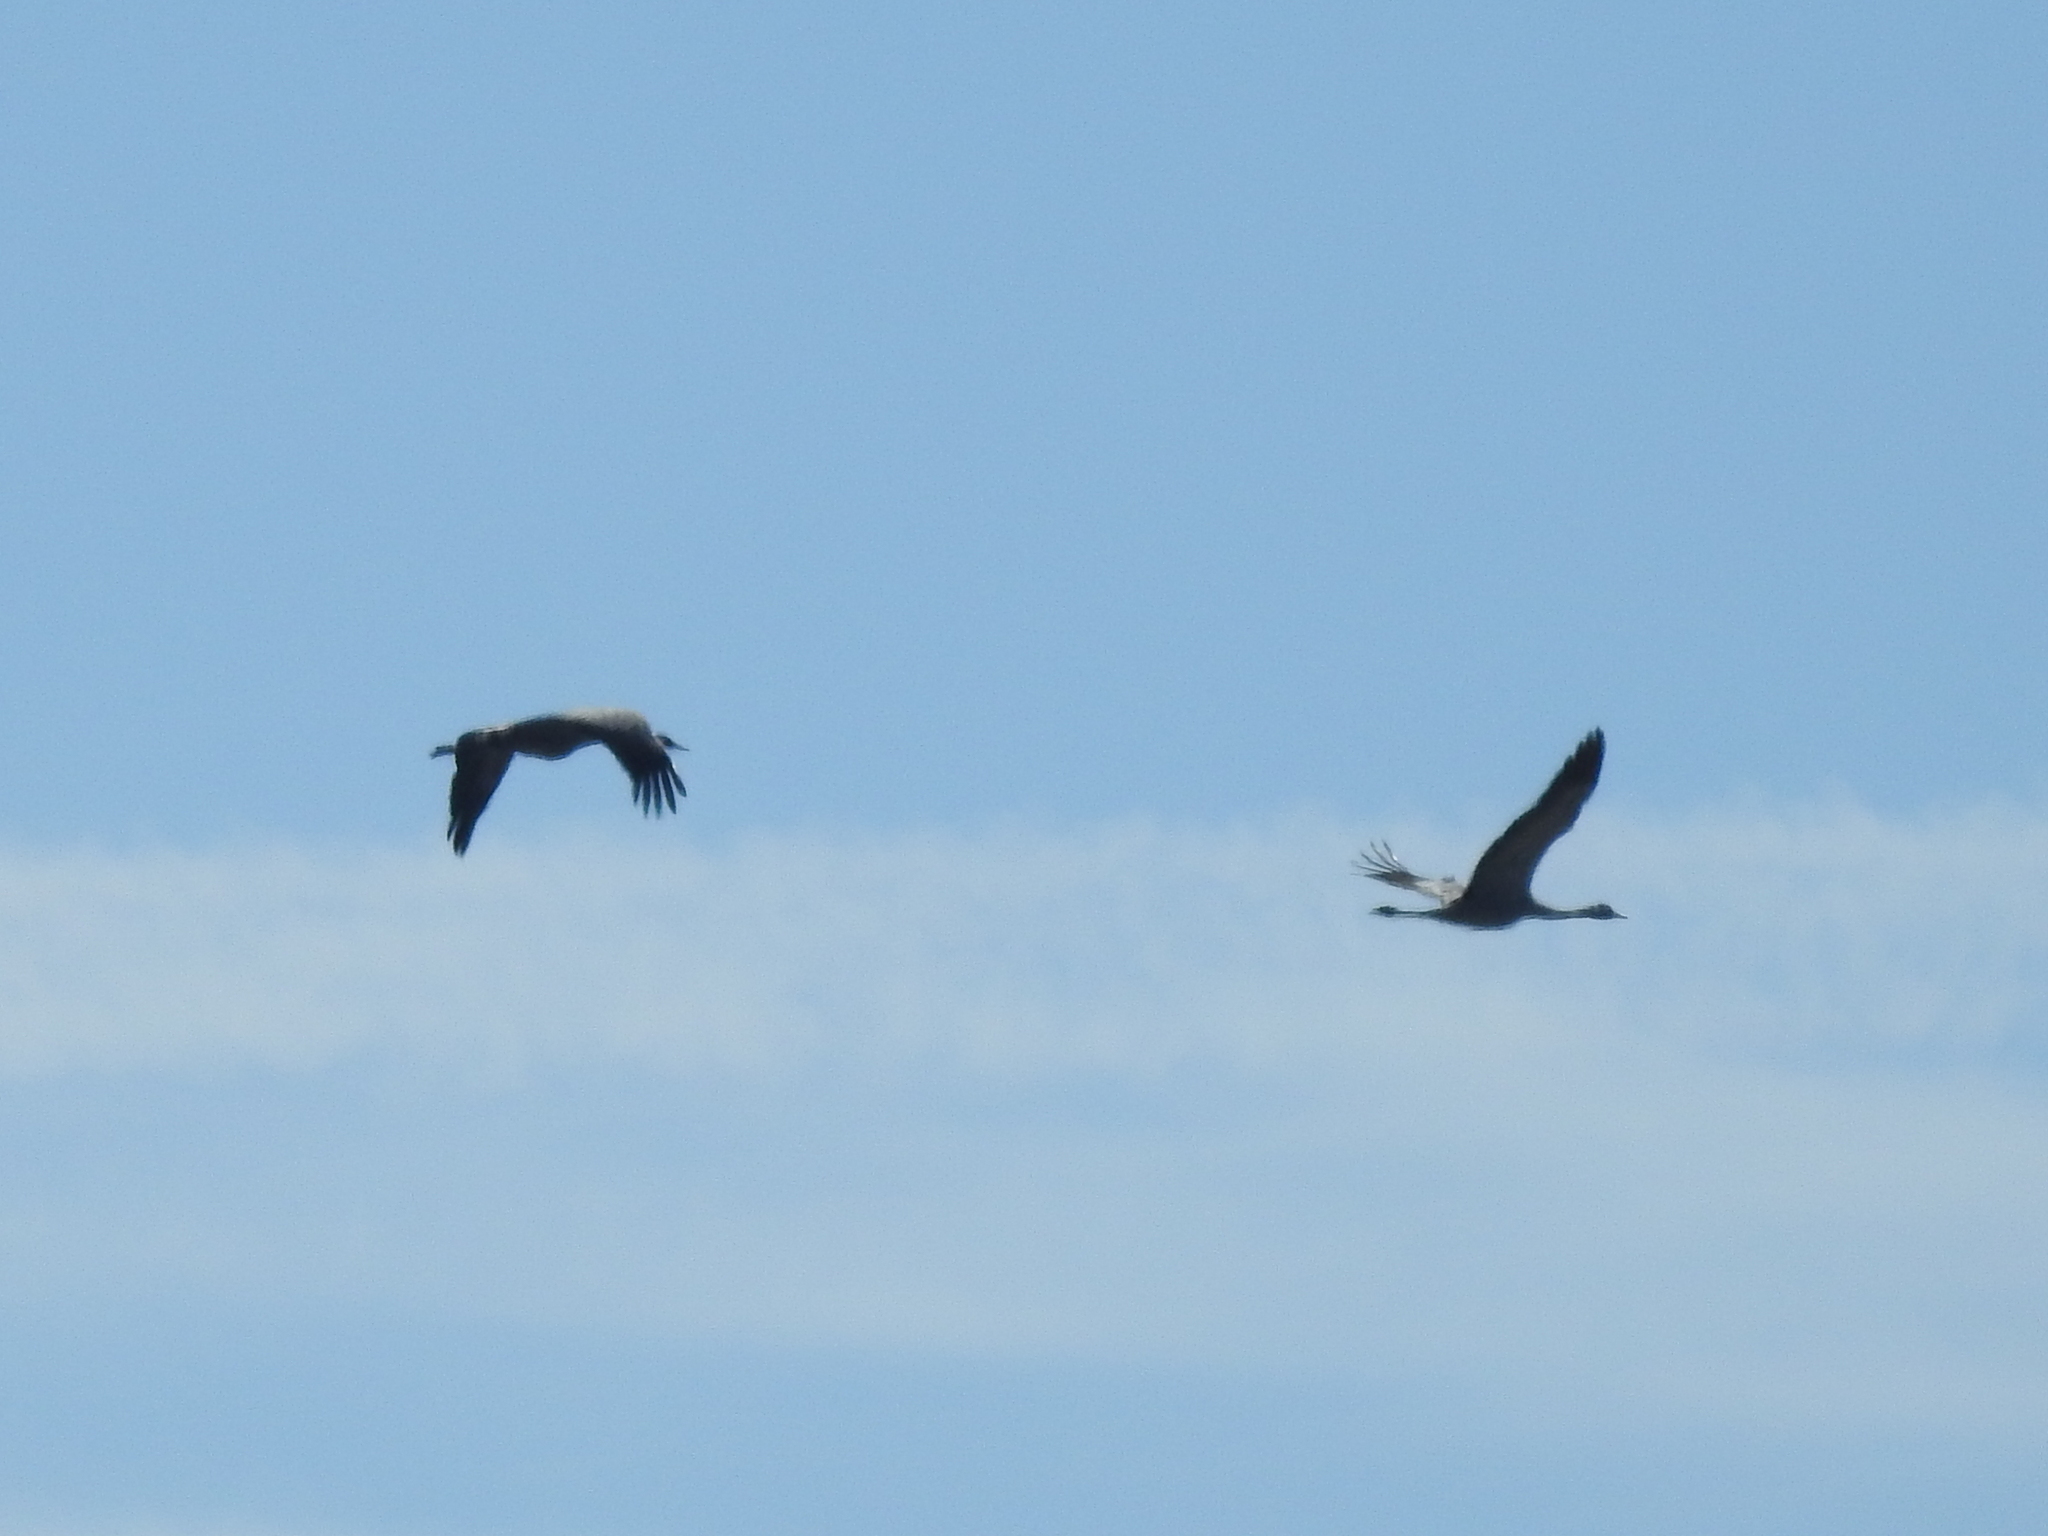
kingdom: Animalia
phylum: Chordata
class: Aves
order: Gruiformes
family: Gruidae
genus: Grus
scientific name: Grus grus
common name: Common crane
